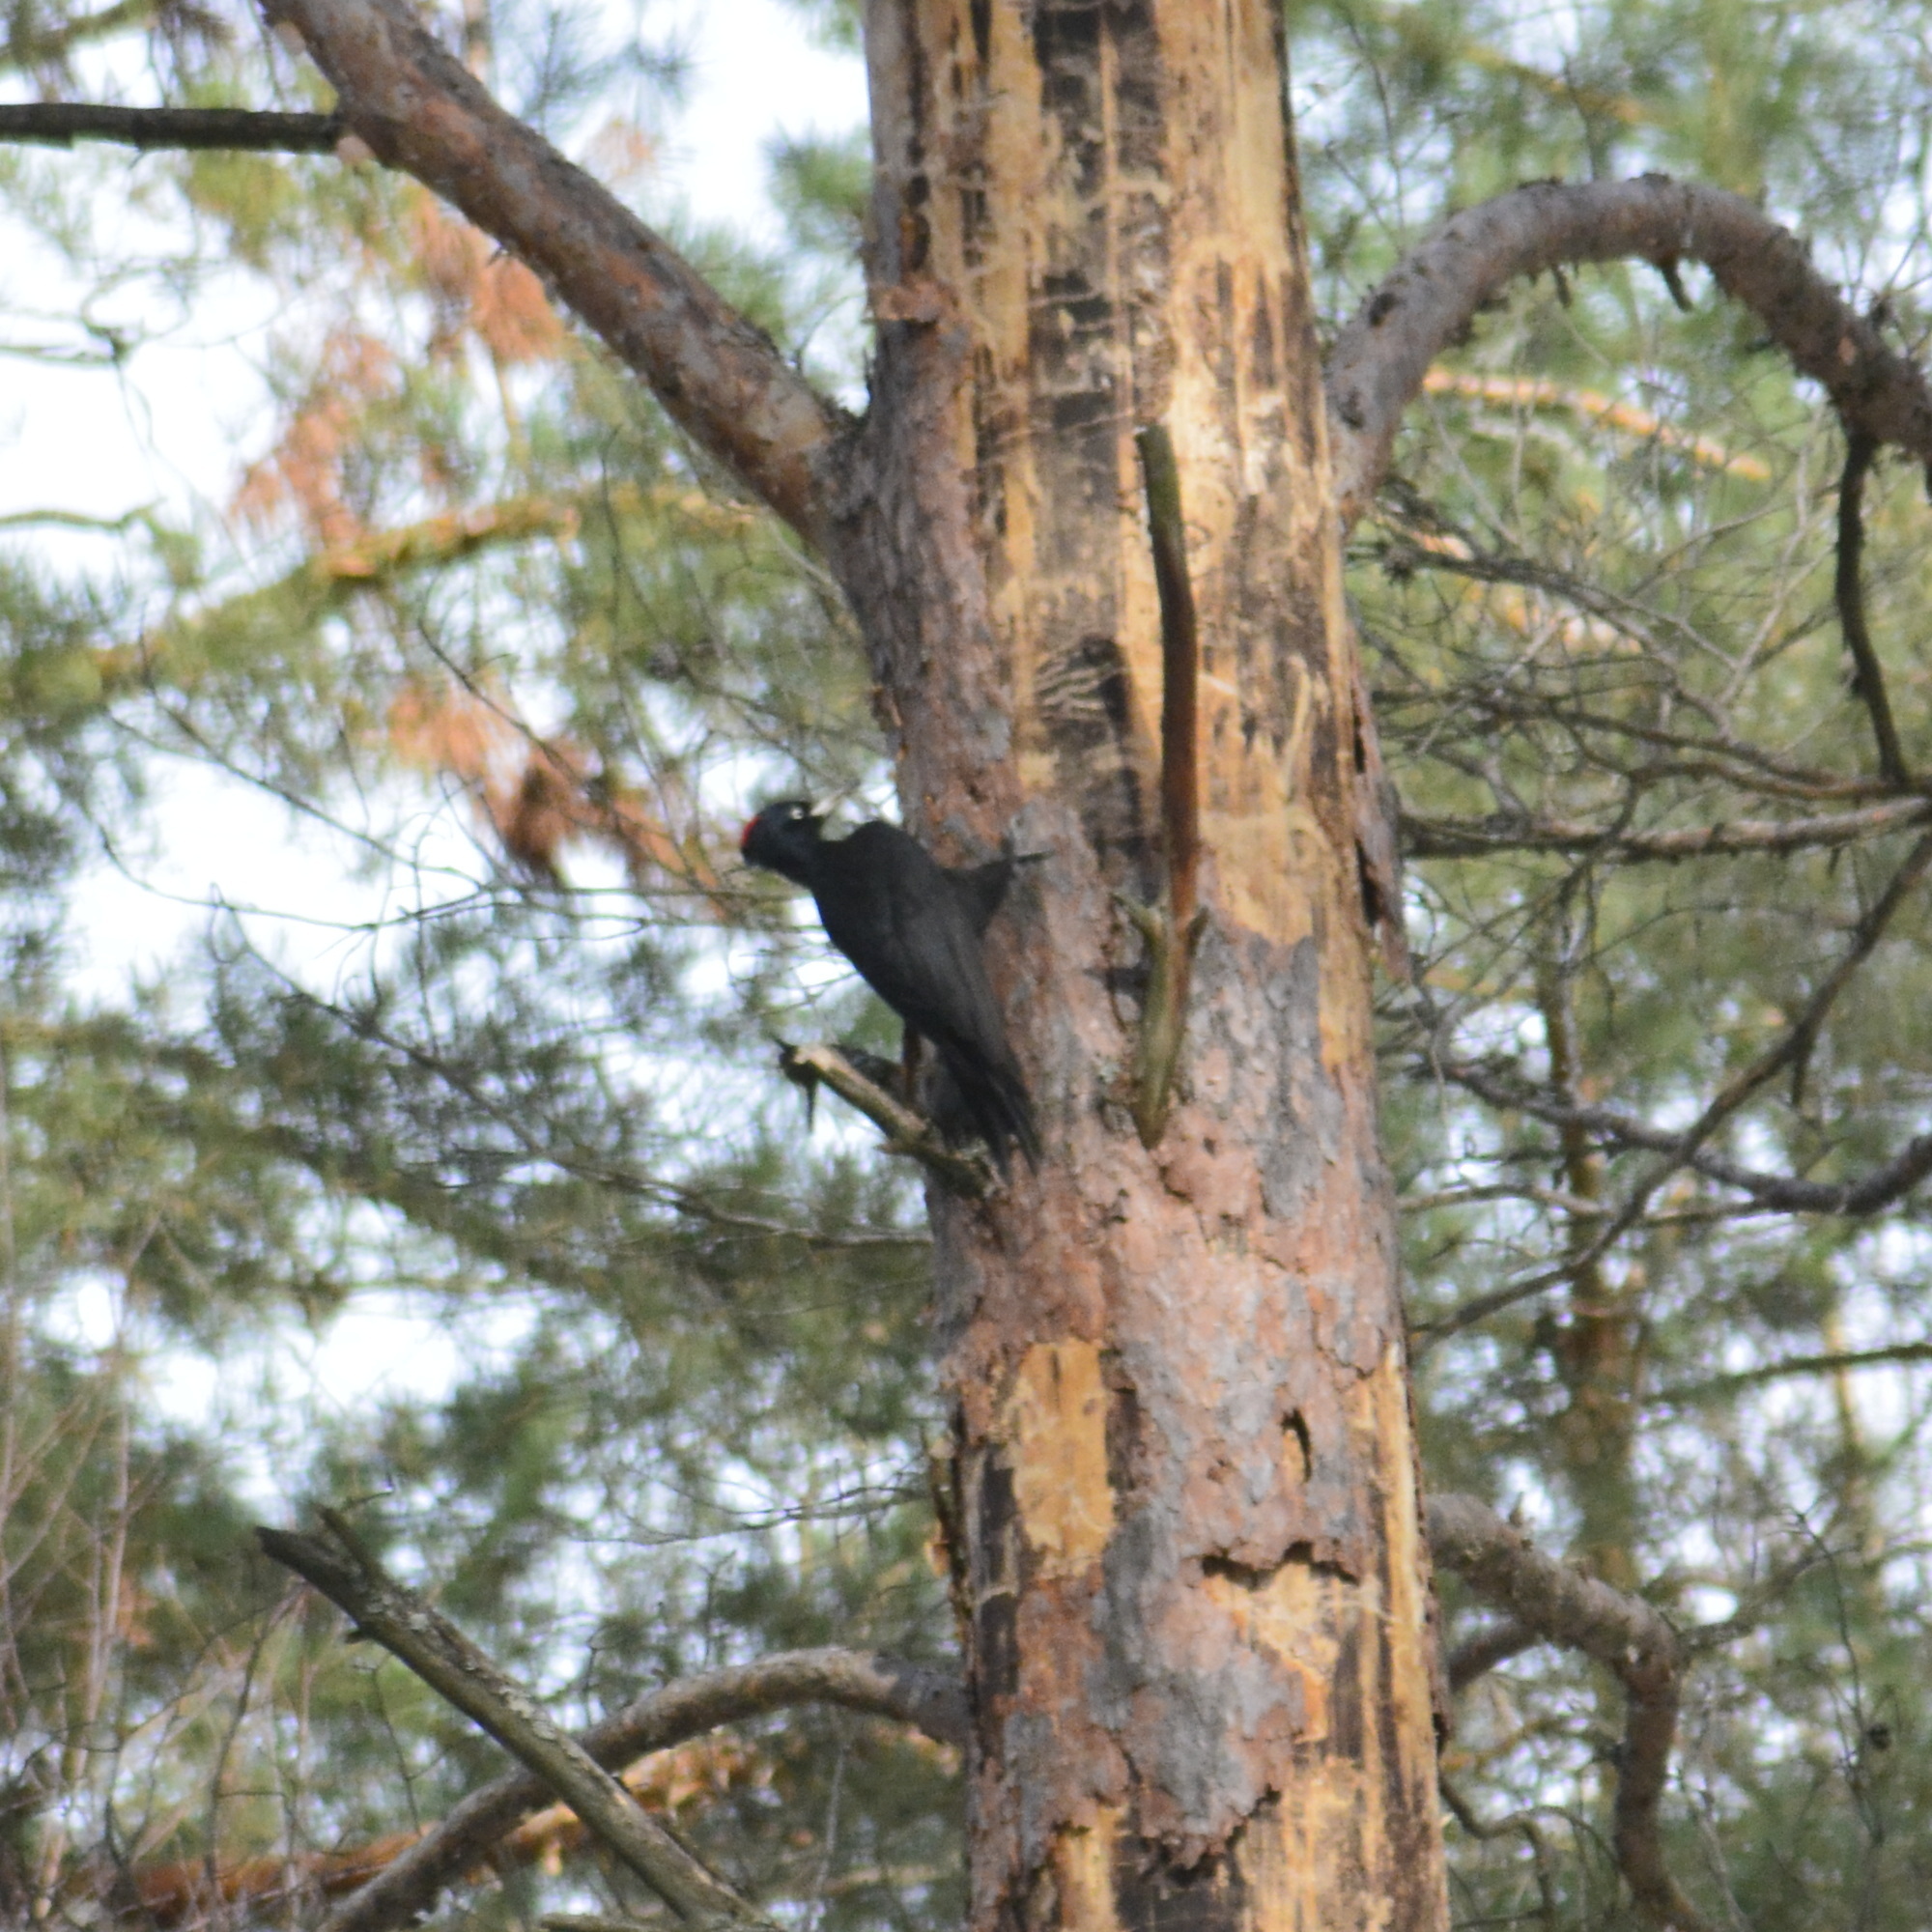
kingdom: Animalia
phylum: Chordata
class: Aves
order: Piciformes
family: Picidae
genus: Dryocopus
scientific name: Dryocopus martius
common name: Black woodpecker
